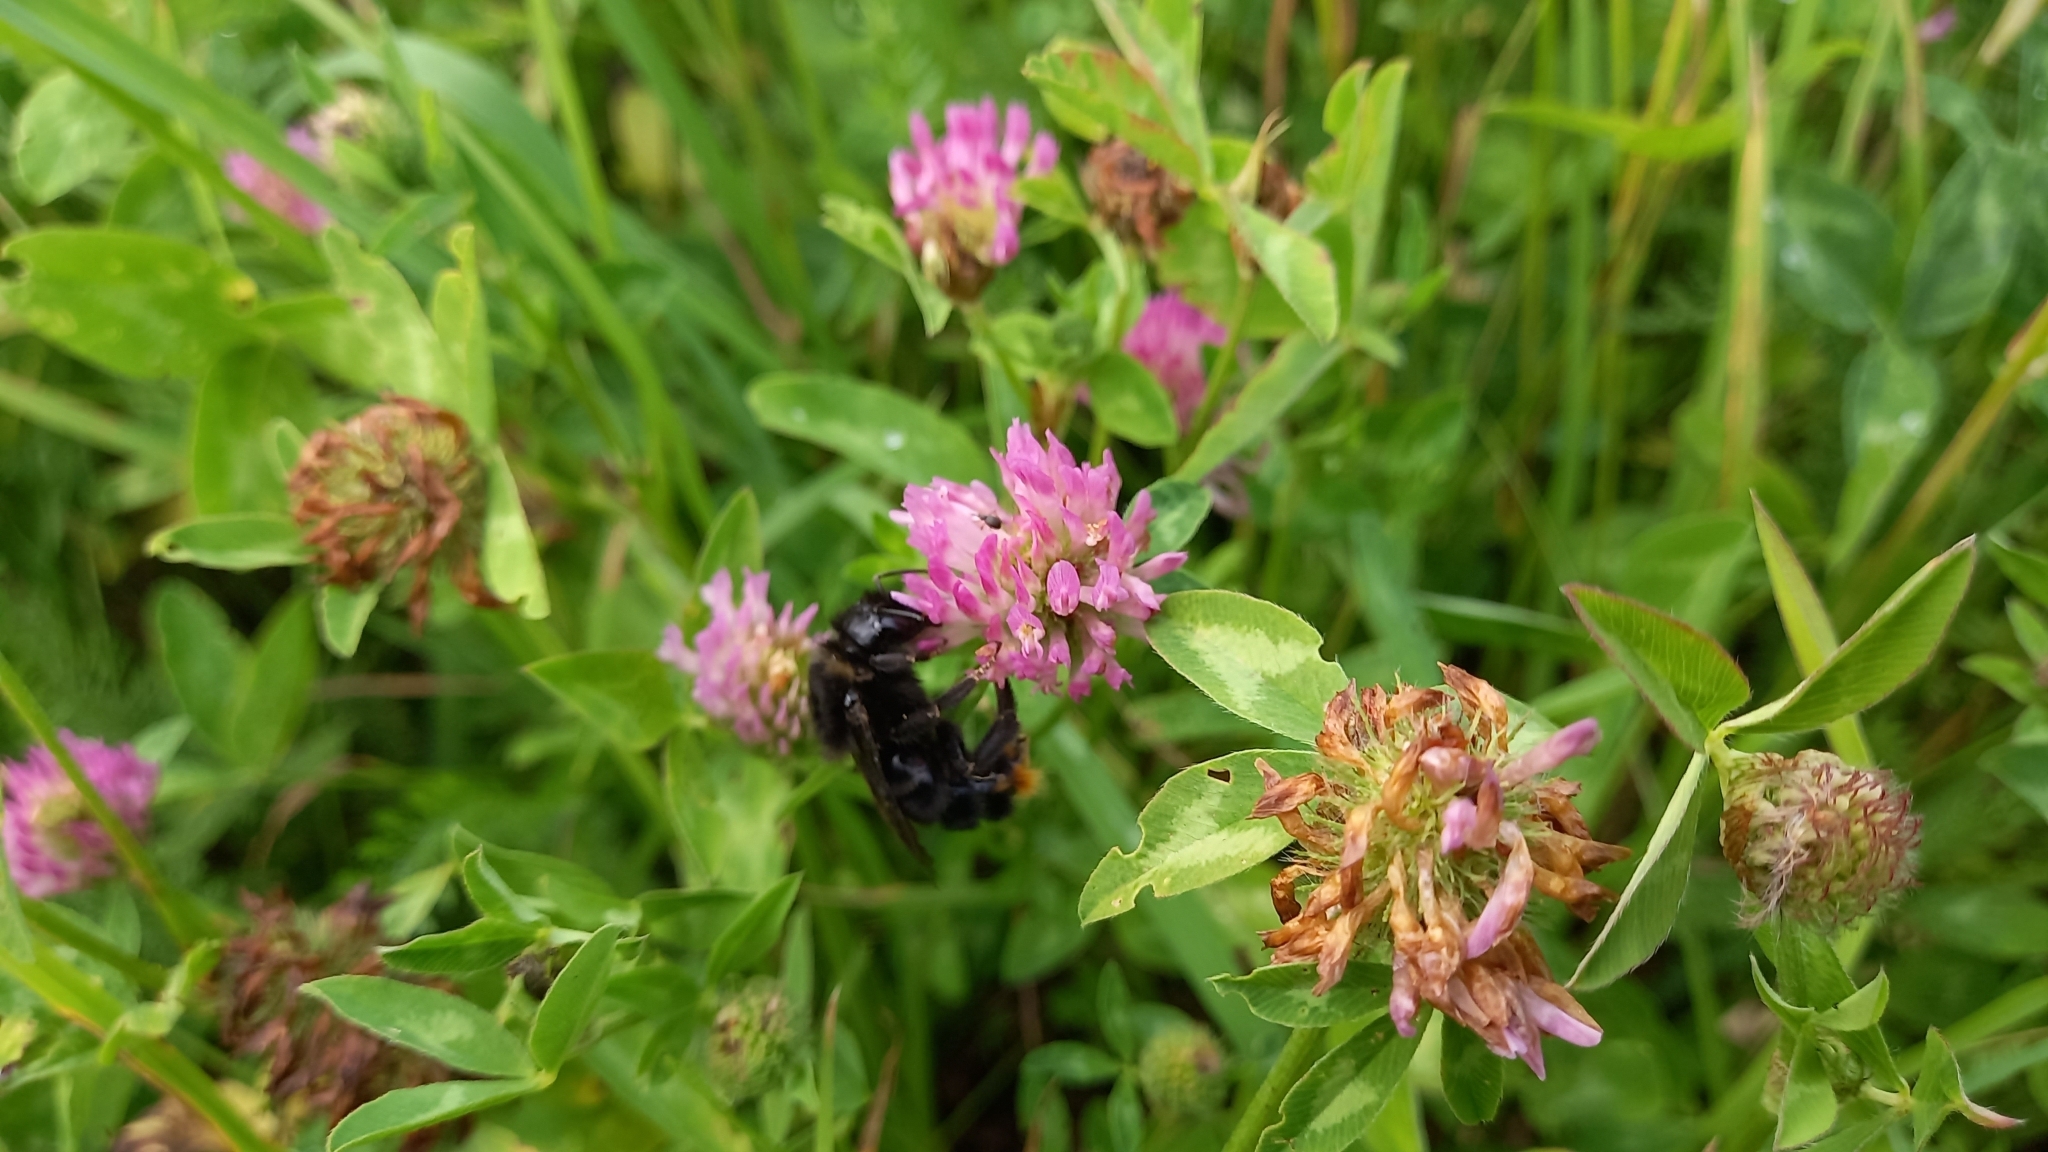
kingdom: Animalia
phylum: Arthropoda
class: Insecta
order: Hymenoptera
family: Apidae
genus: Bombus
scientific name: Bombus rupestris
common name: Hill cuckoo-bee
